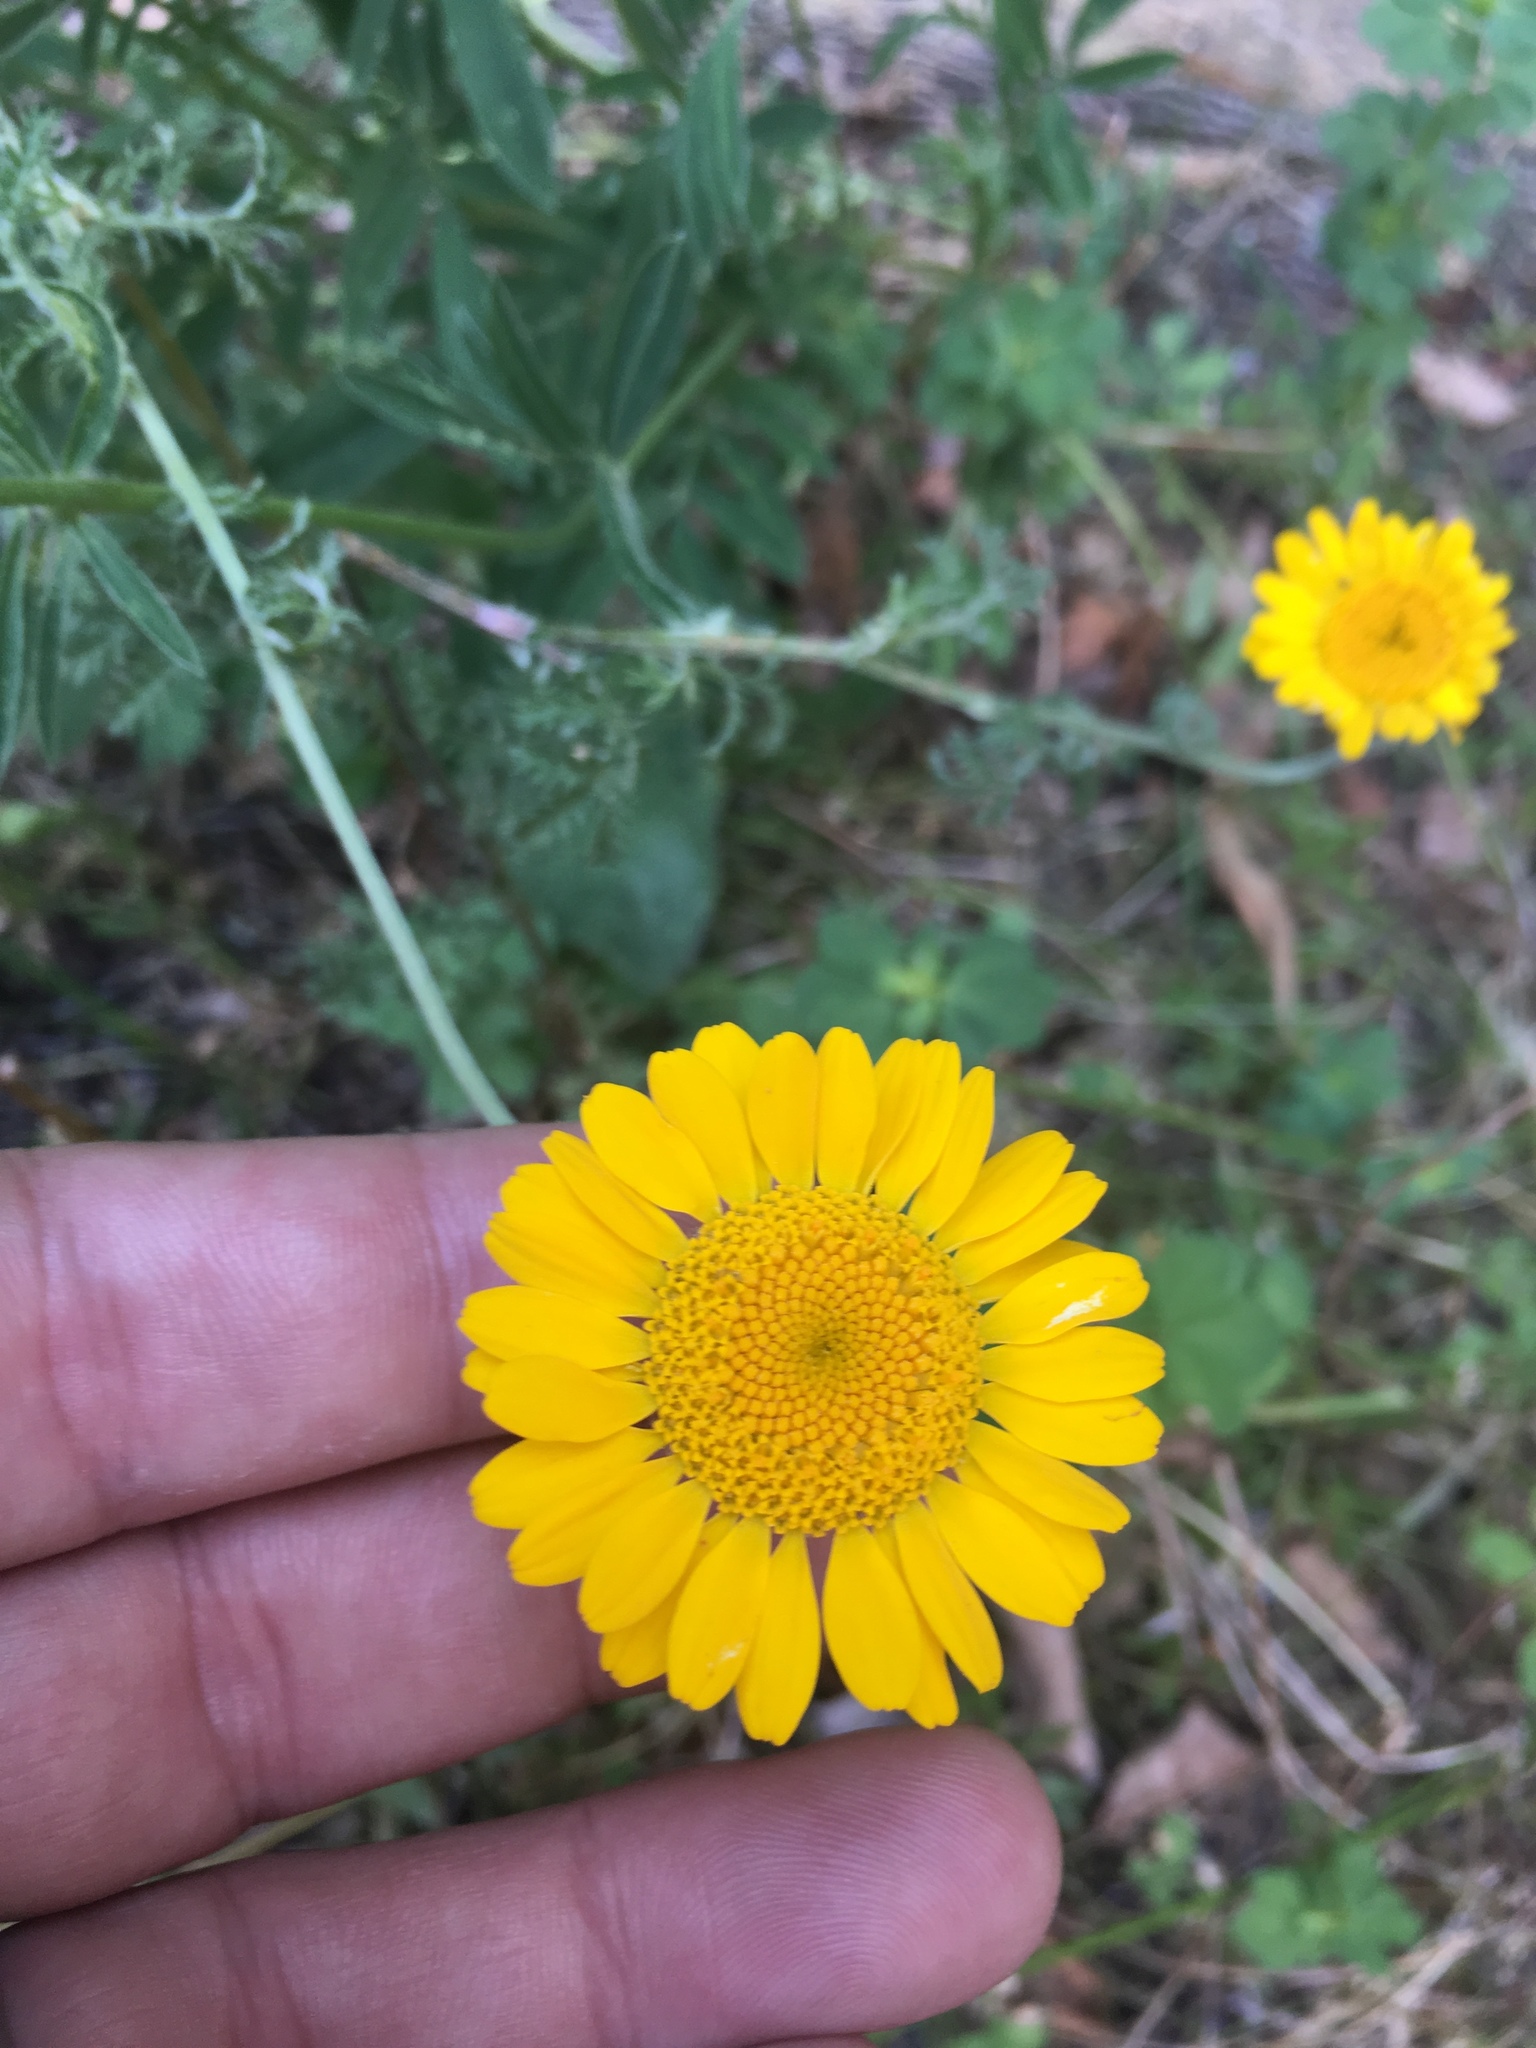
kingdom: Plantae
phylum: Tracheophyta
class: Magnoliopsida
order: Asterales
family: Asteraceae
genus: Cota
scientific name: Cota tinctoria
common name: Golden chamomile
